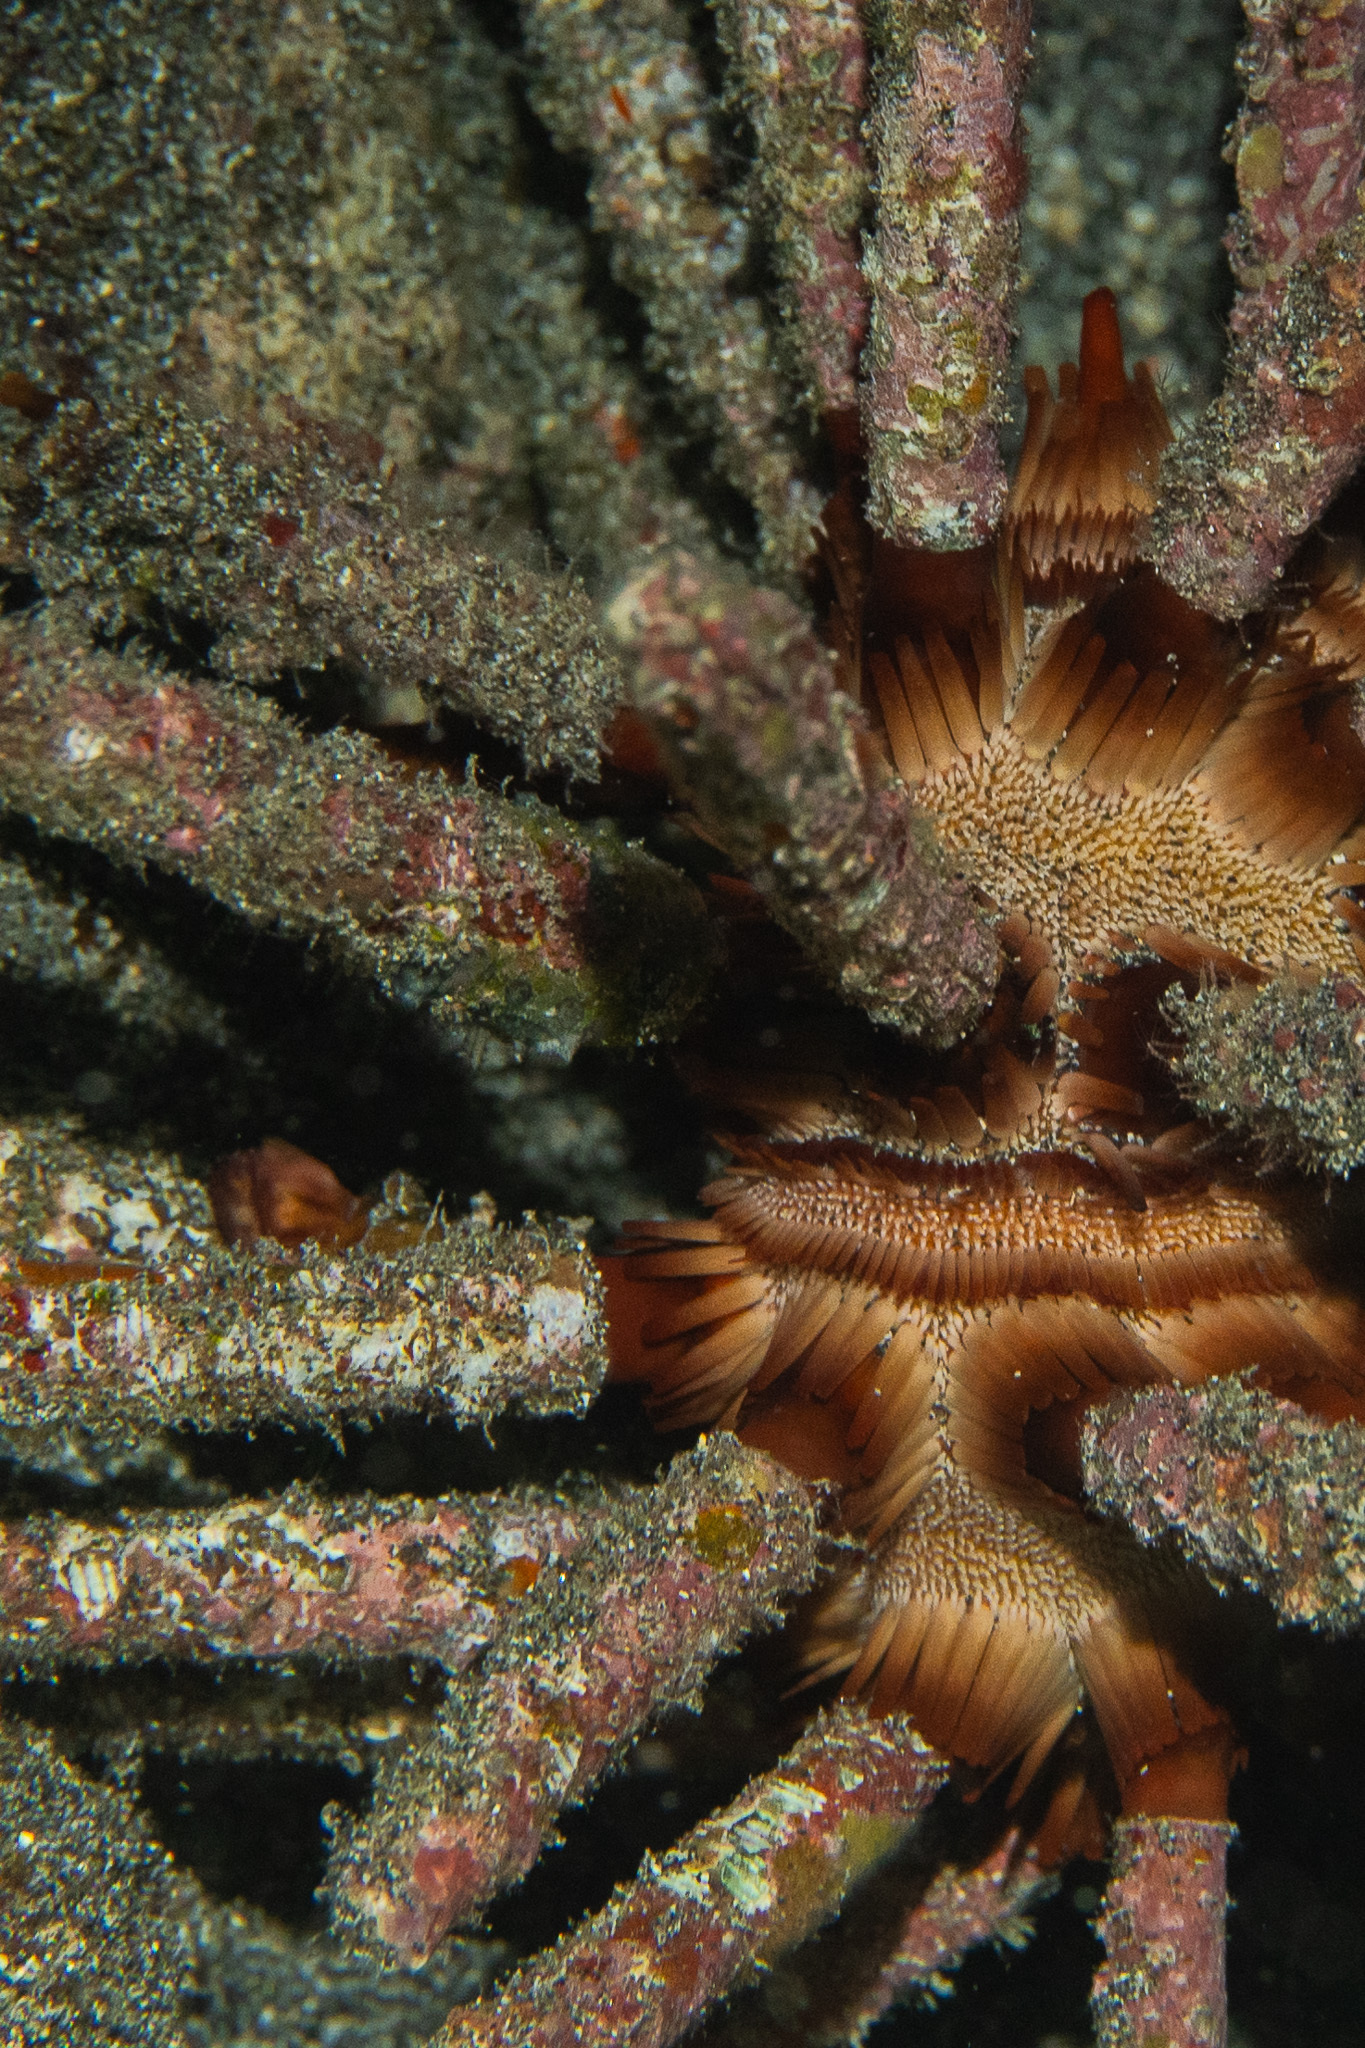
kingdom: Animalia
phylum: Echinodermata
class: Echinoidea
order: Cidaroida
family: Cidaridae
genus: Chondrocidaris
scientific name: Chondrocidaris gigantea
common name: Blade-tipped tiara-urchin
